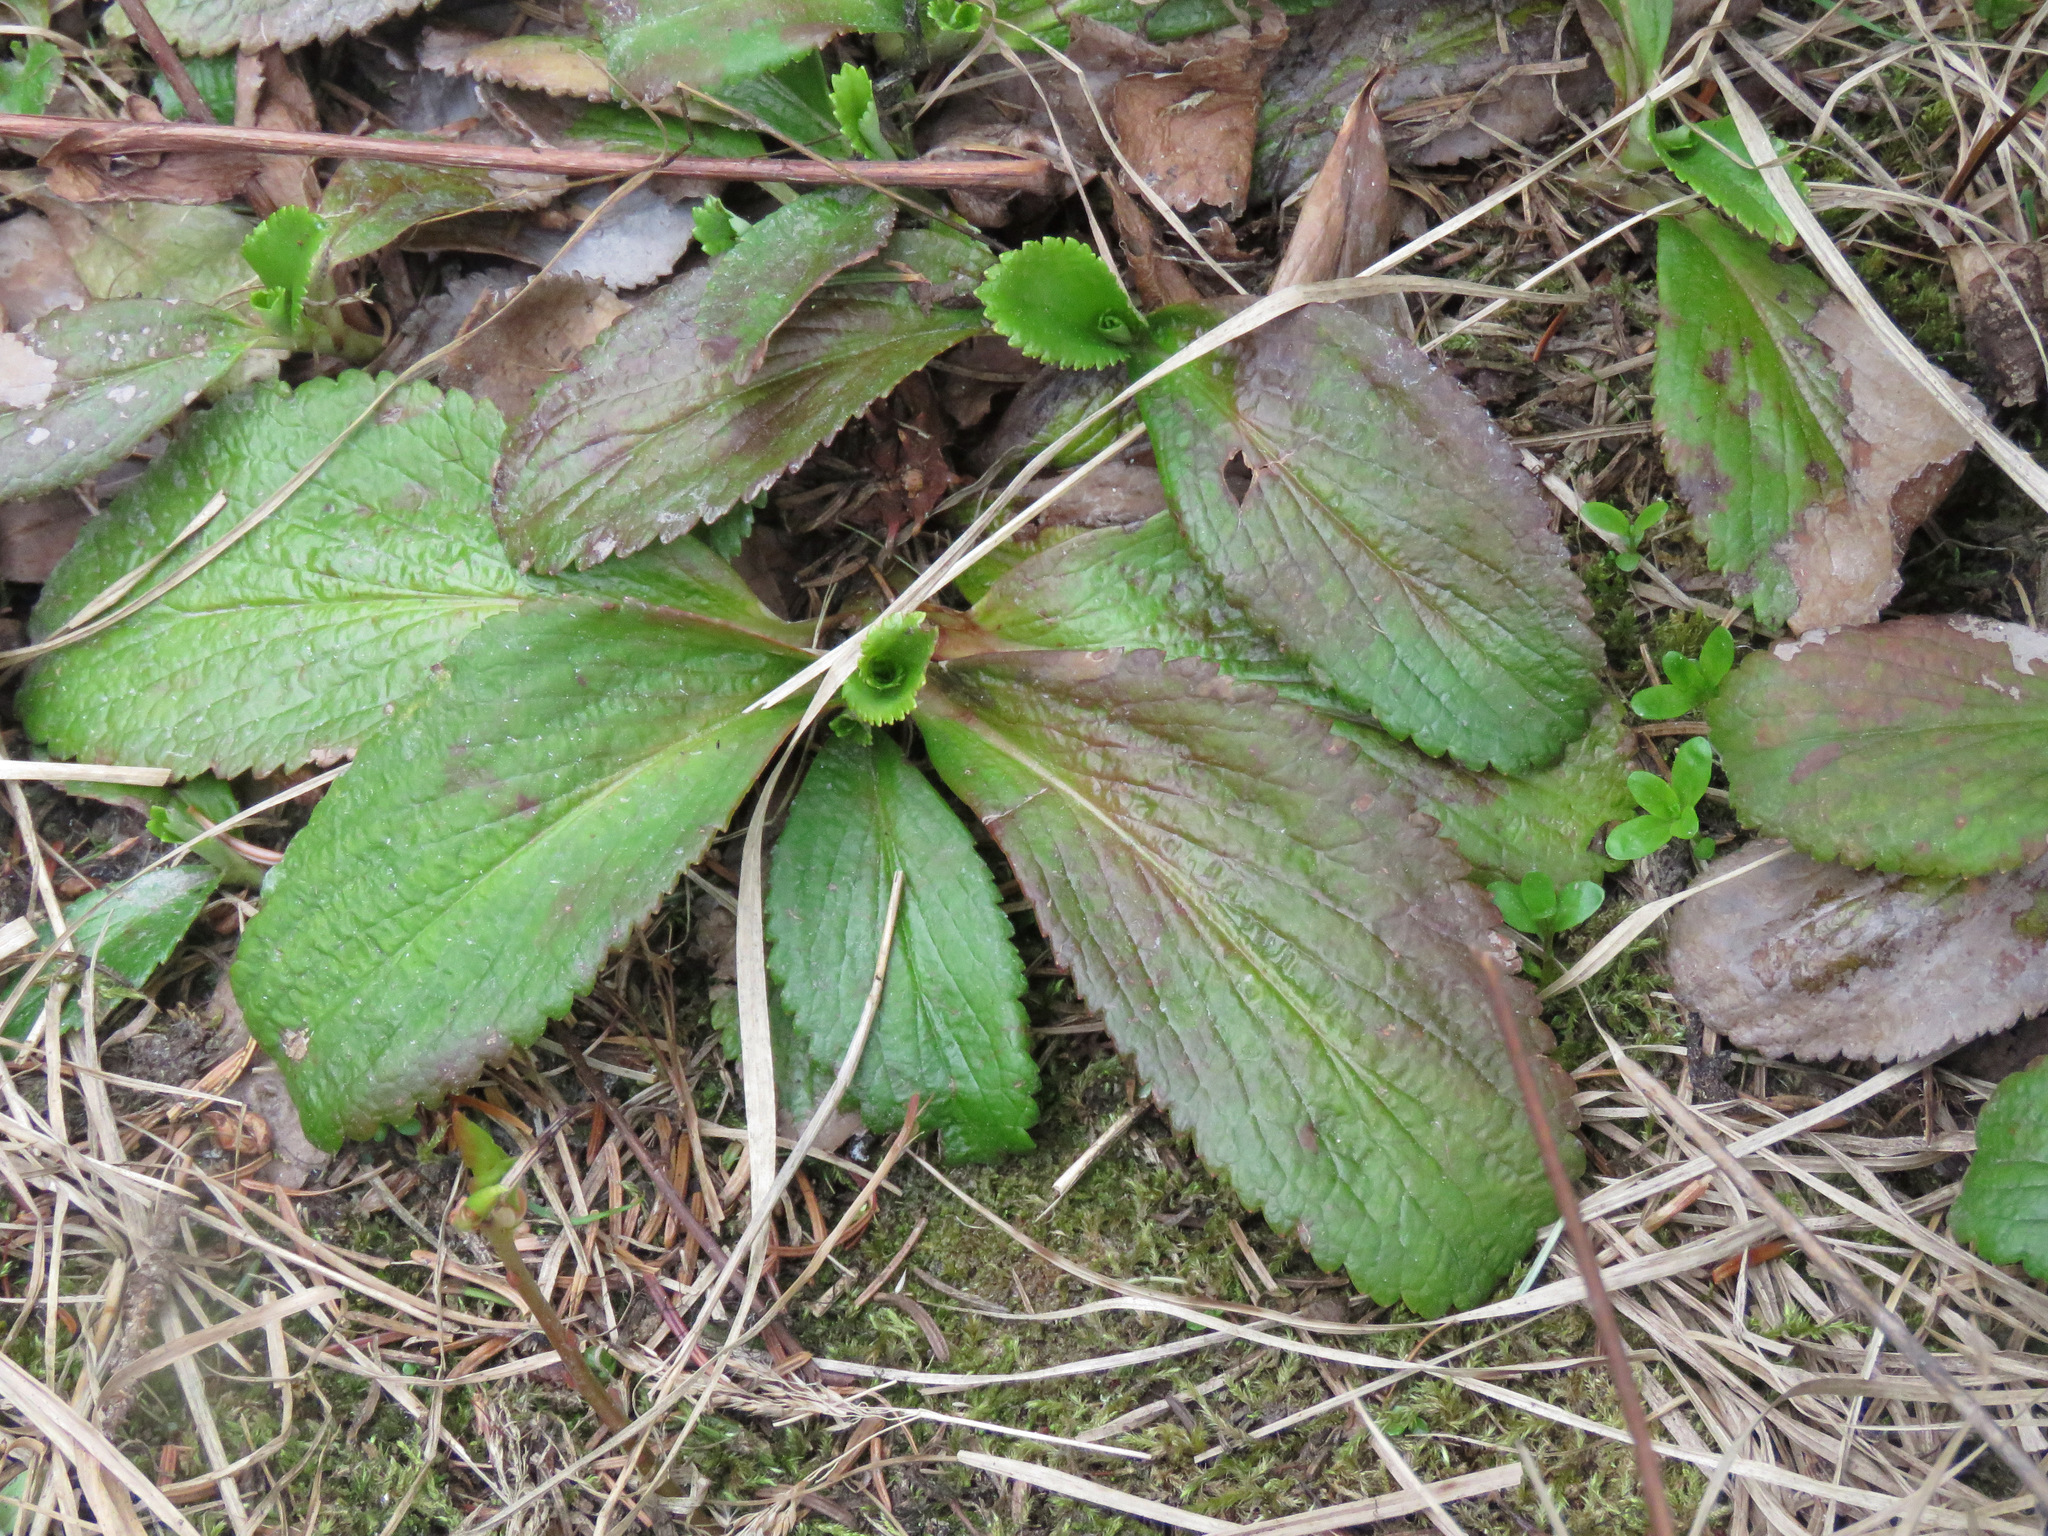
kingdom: Plantae
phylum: Tracheophyta
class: Magnoliopsida
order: Saxifragales
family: Saxifragaceae
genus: Leptarrhena
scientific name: Leptarrhena pyrolifolia
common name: Leatherleaf-saxifrage
